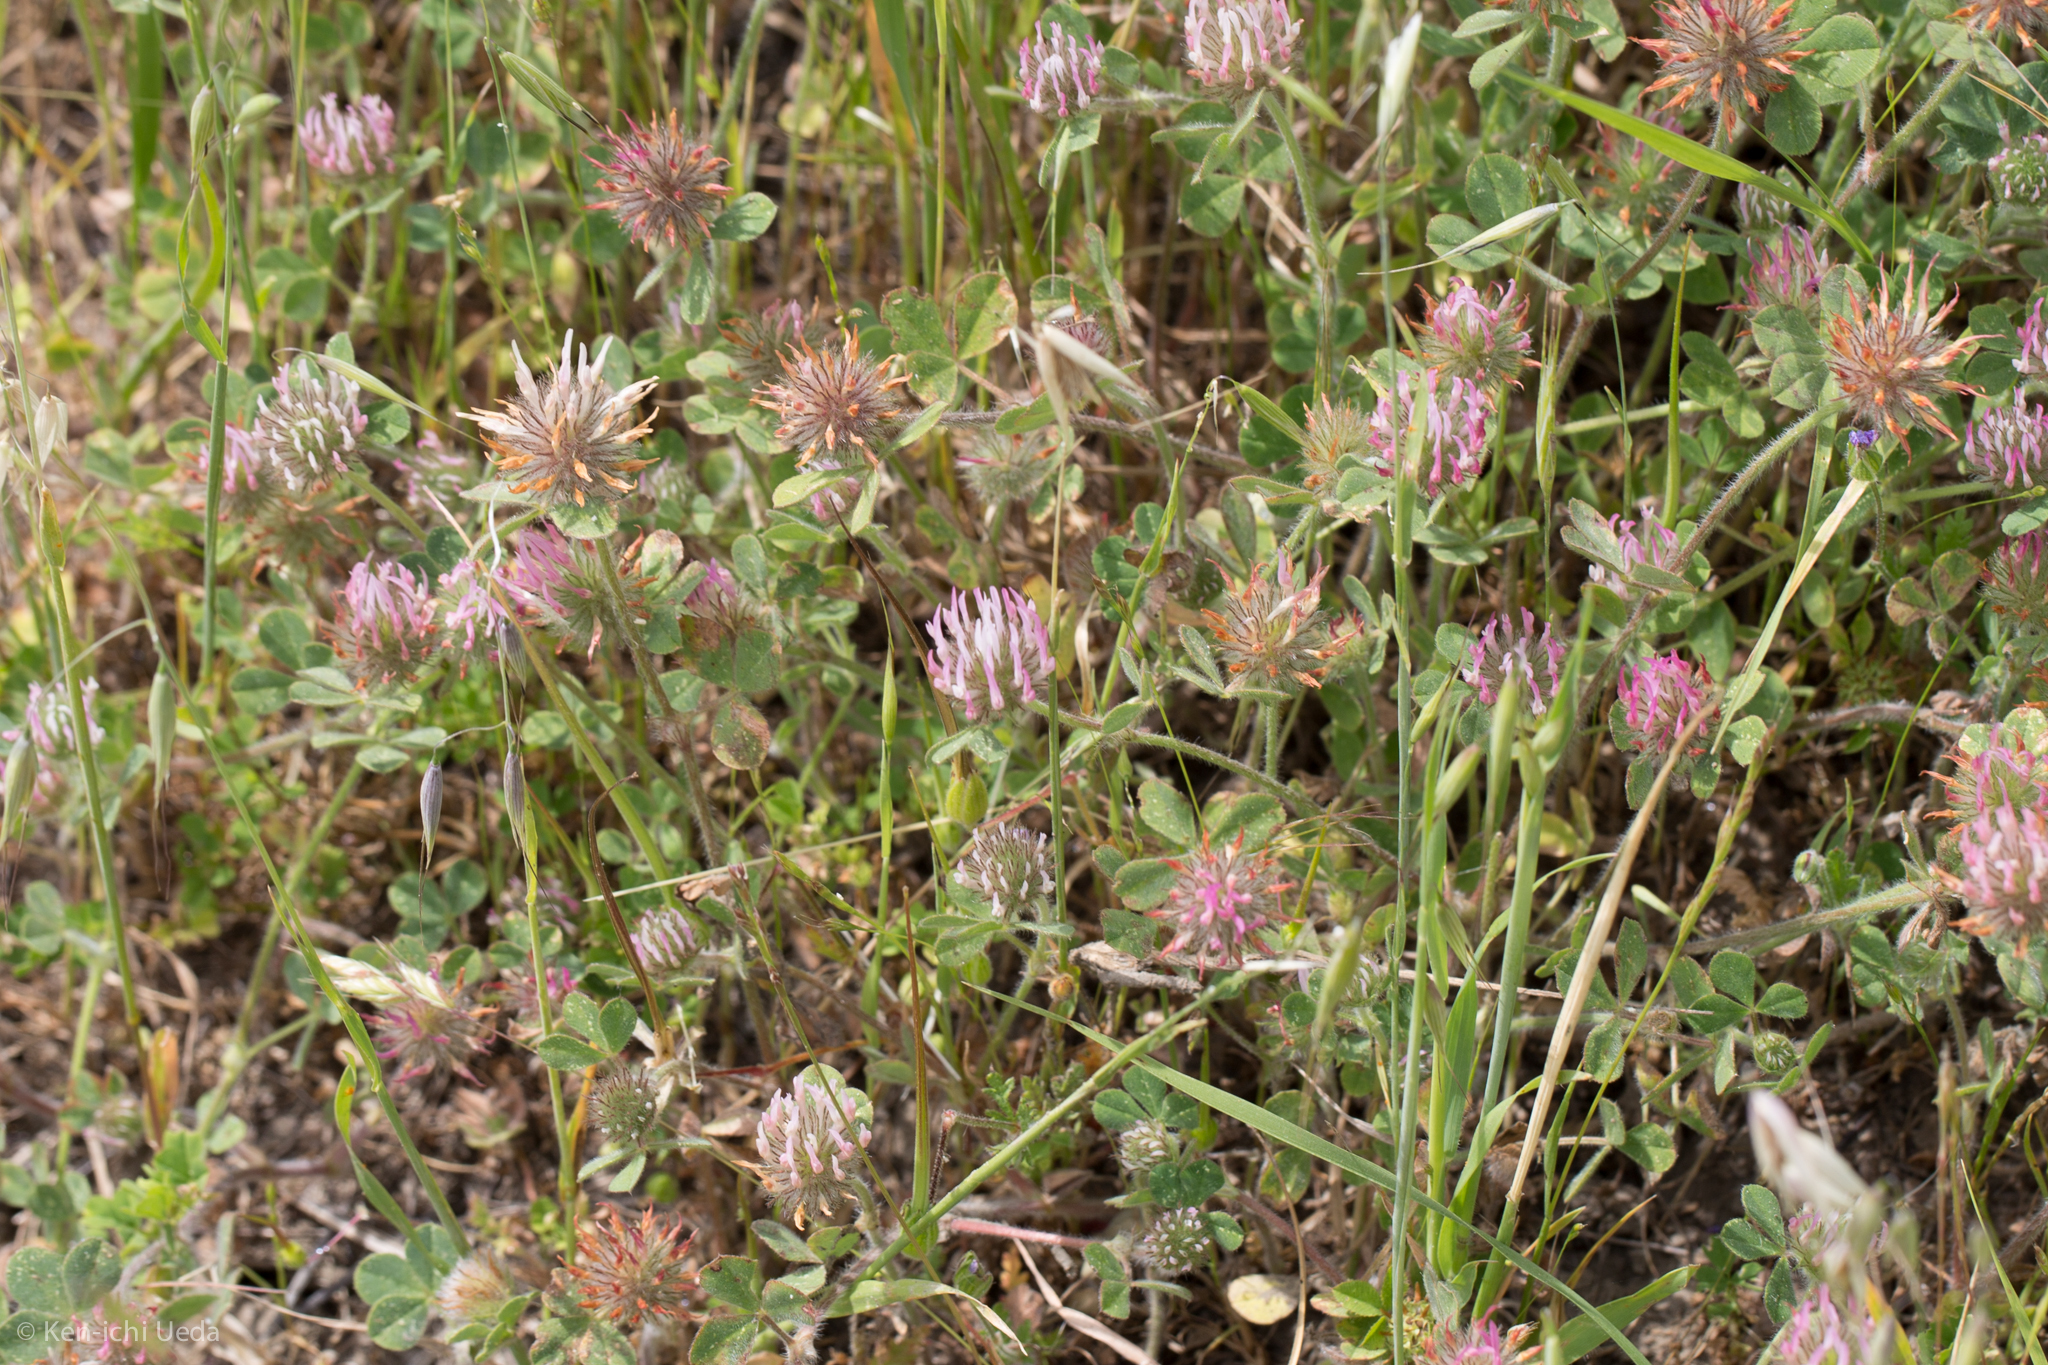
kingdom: Plantae
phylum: Tracheophyta
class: Magnoliopsida
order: Fabales
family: Fabaceae
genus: Trifolium
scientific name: Trifolium hirtum
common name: Rose clover
